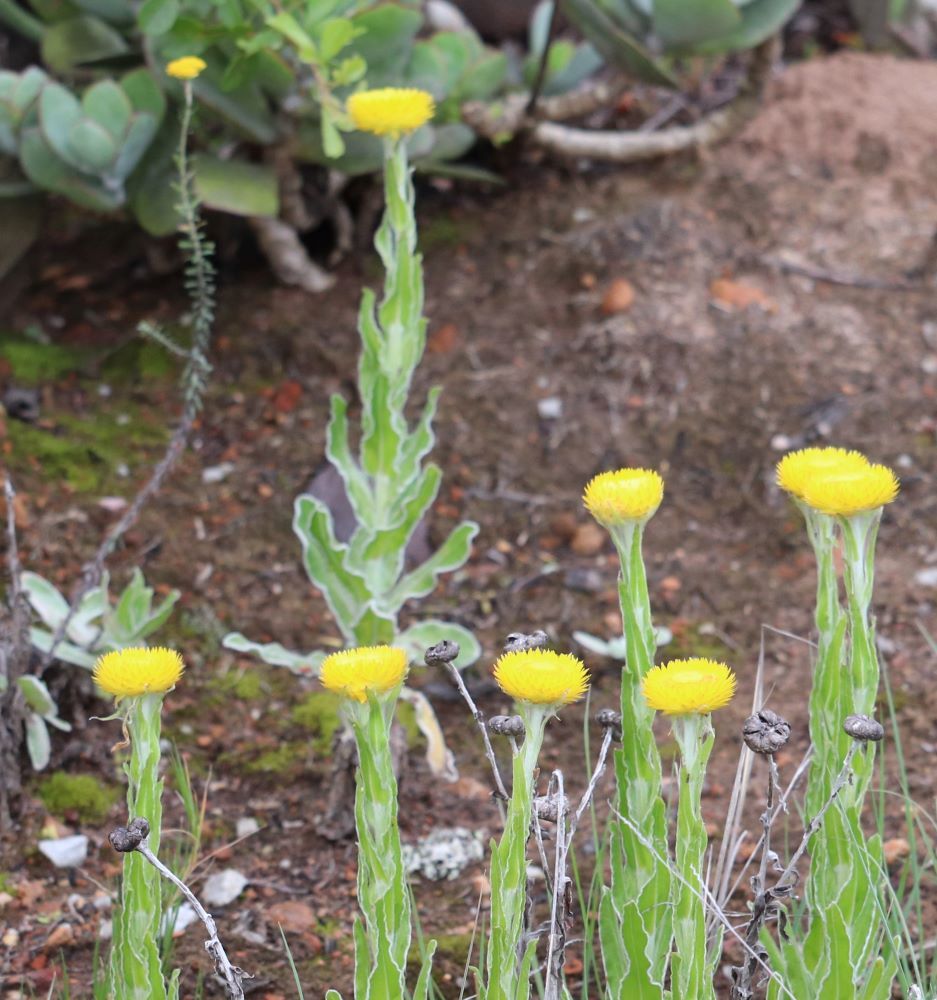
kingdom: Plantae
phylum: Tracheophyta
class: Magnoliopsida
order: Asterales
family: Asteraceae
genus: Helichrysum
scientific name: Helichrysum aureum
